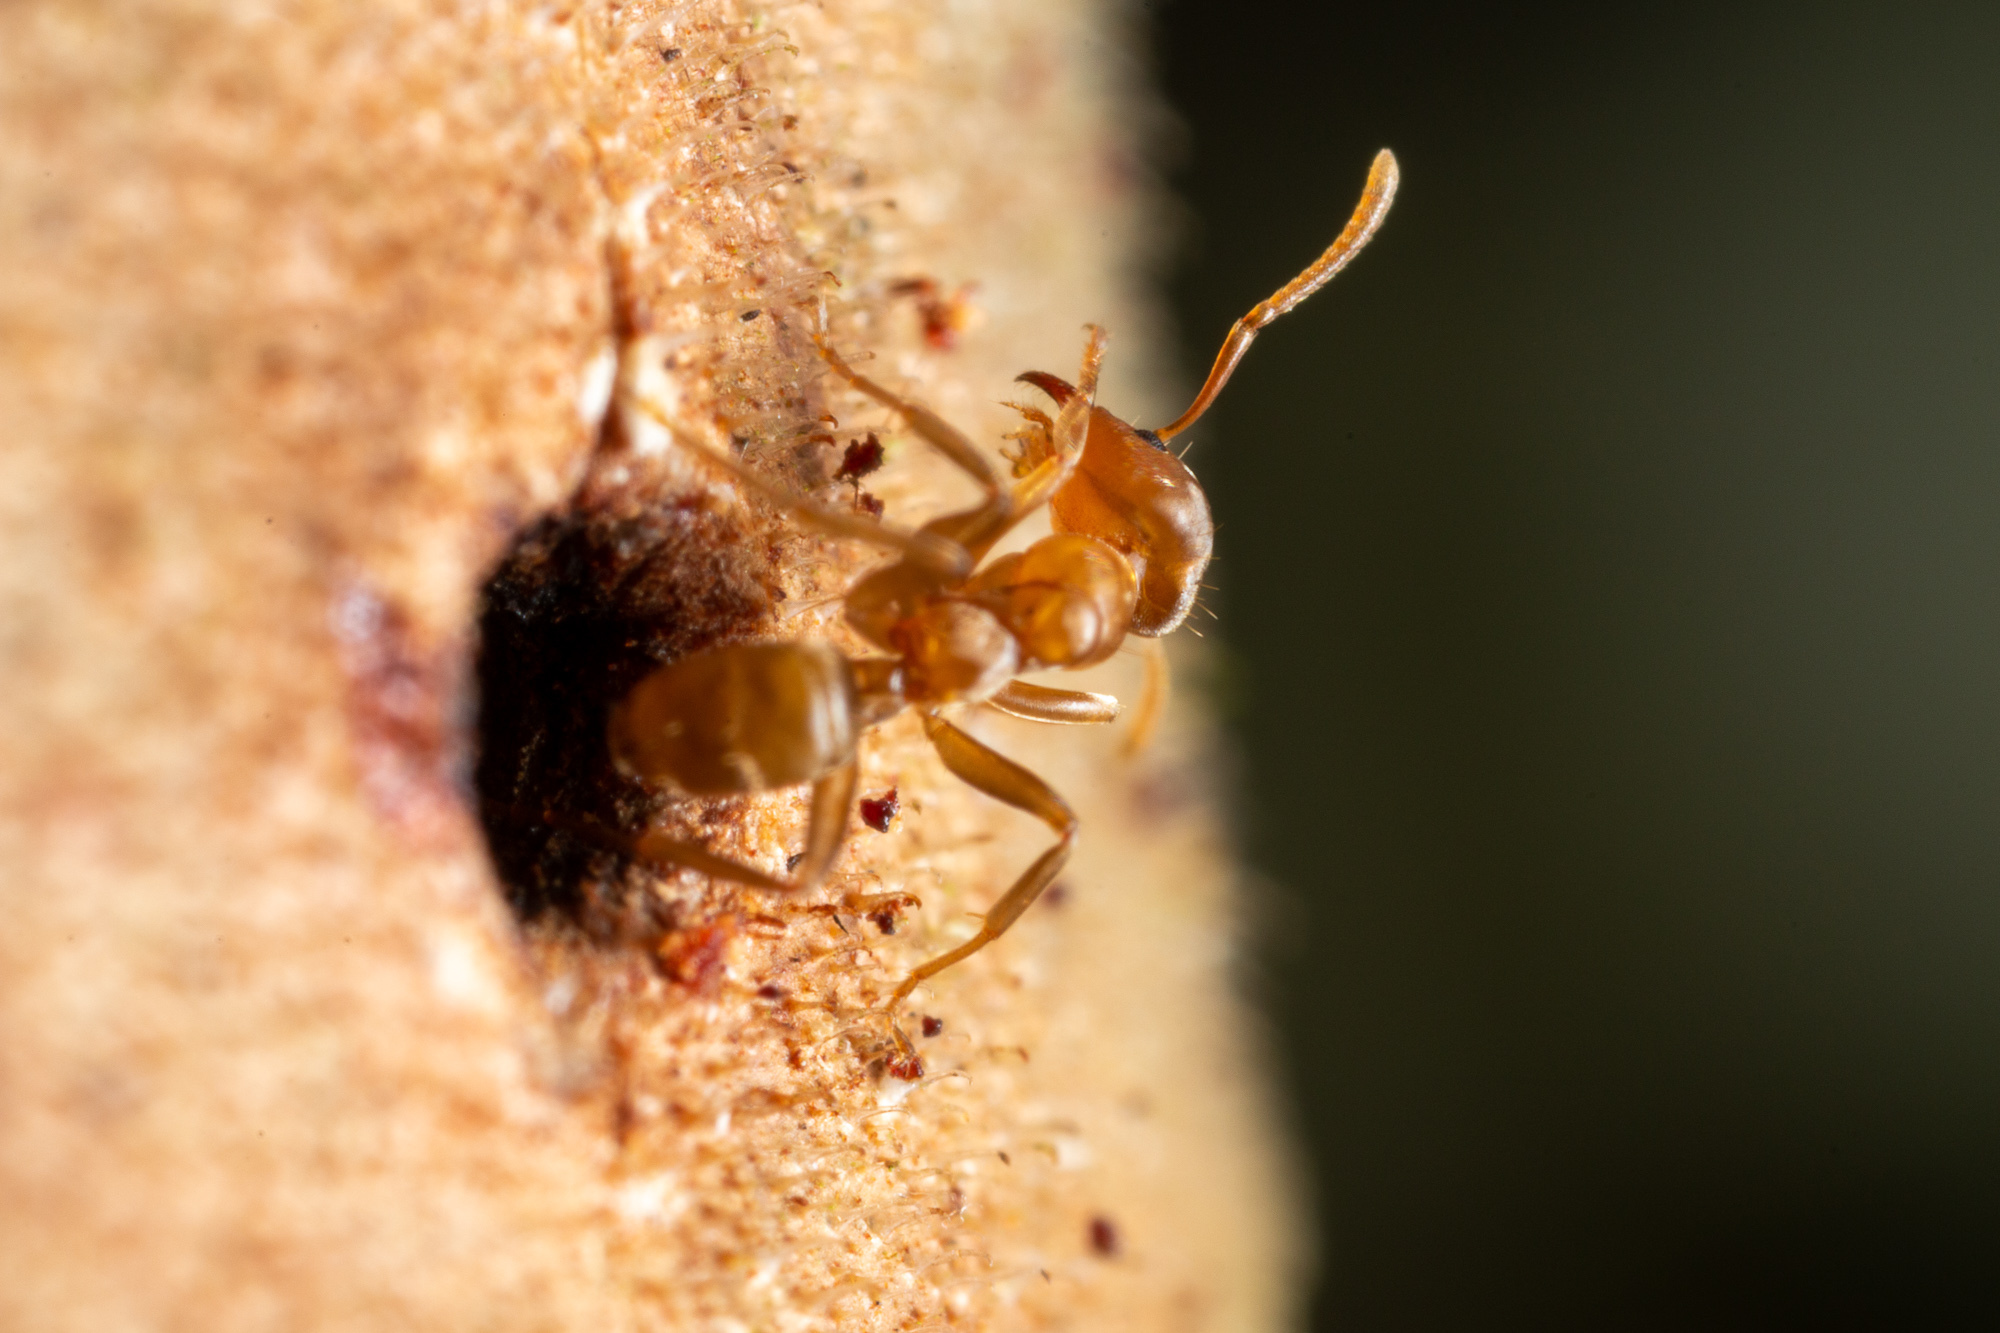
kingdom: Animalia
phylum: Arthropoda
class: Insecta
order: Hymenoptera
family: Formicidae
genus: Azteca
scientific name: Azteca alfari
